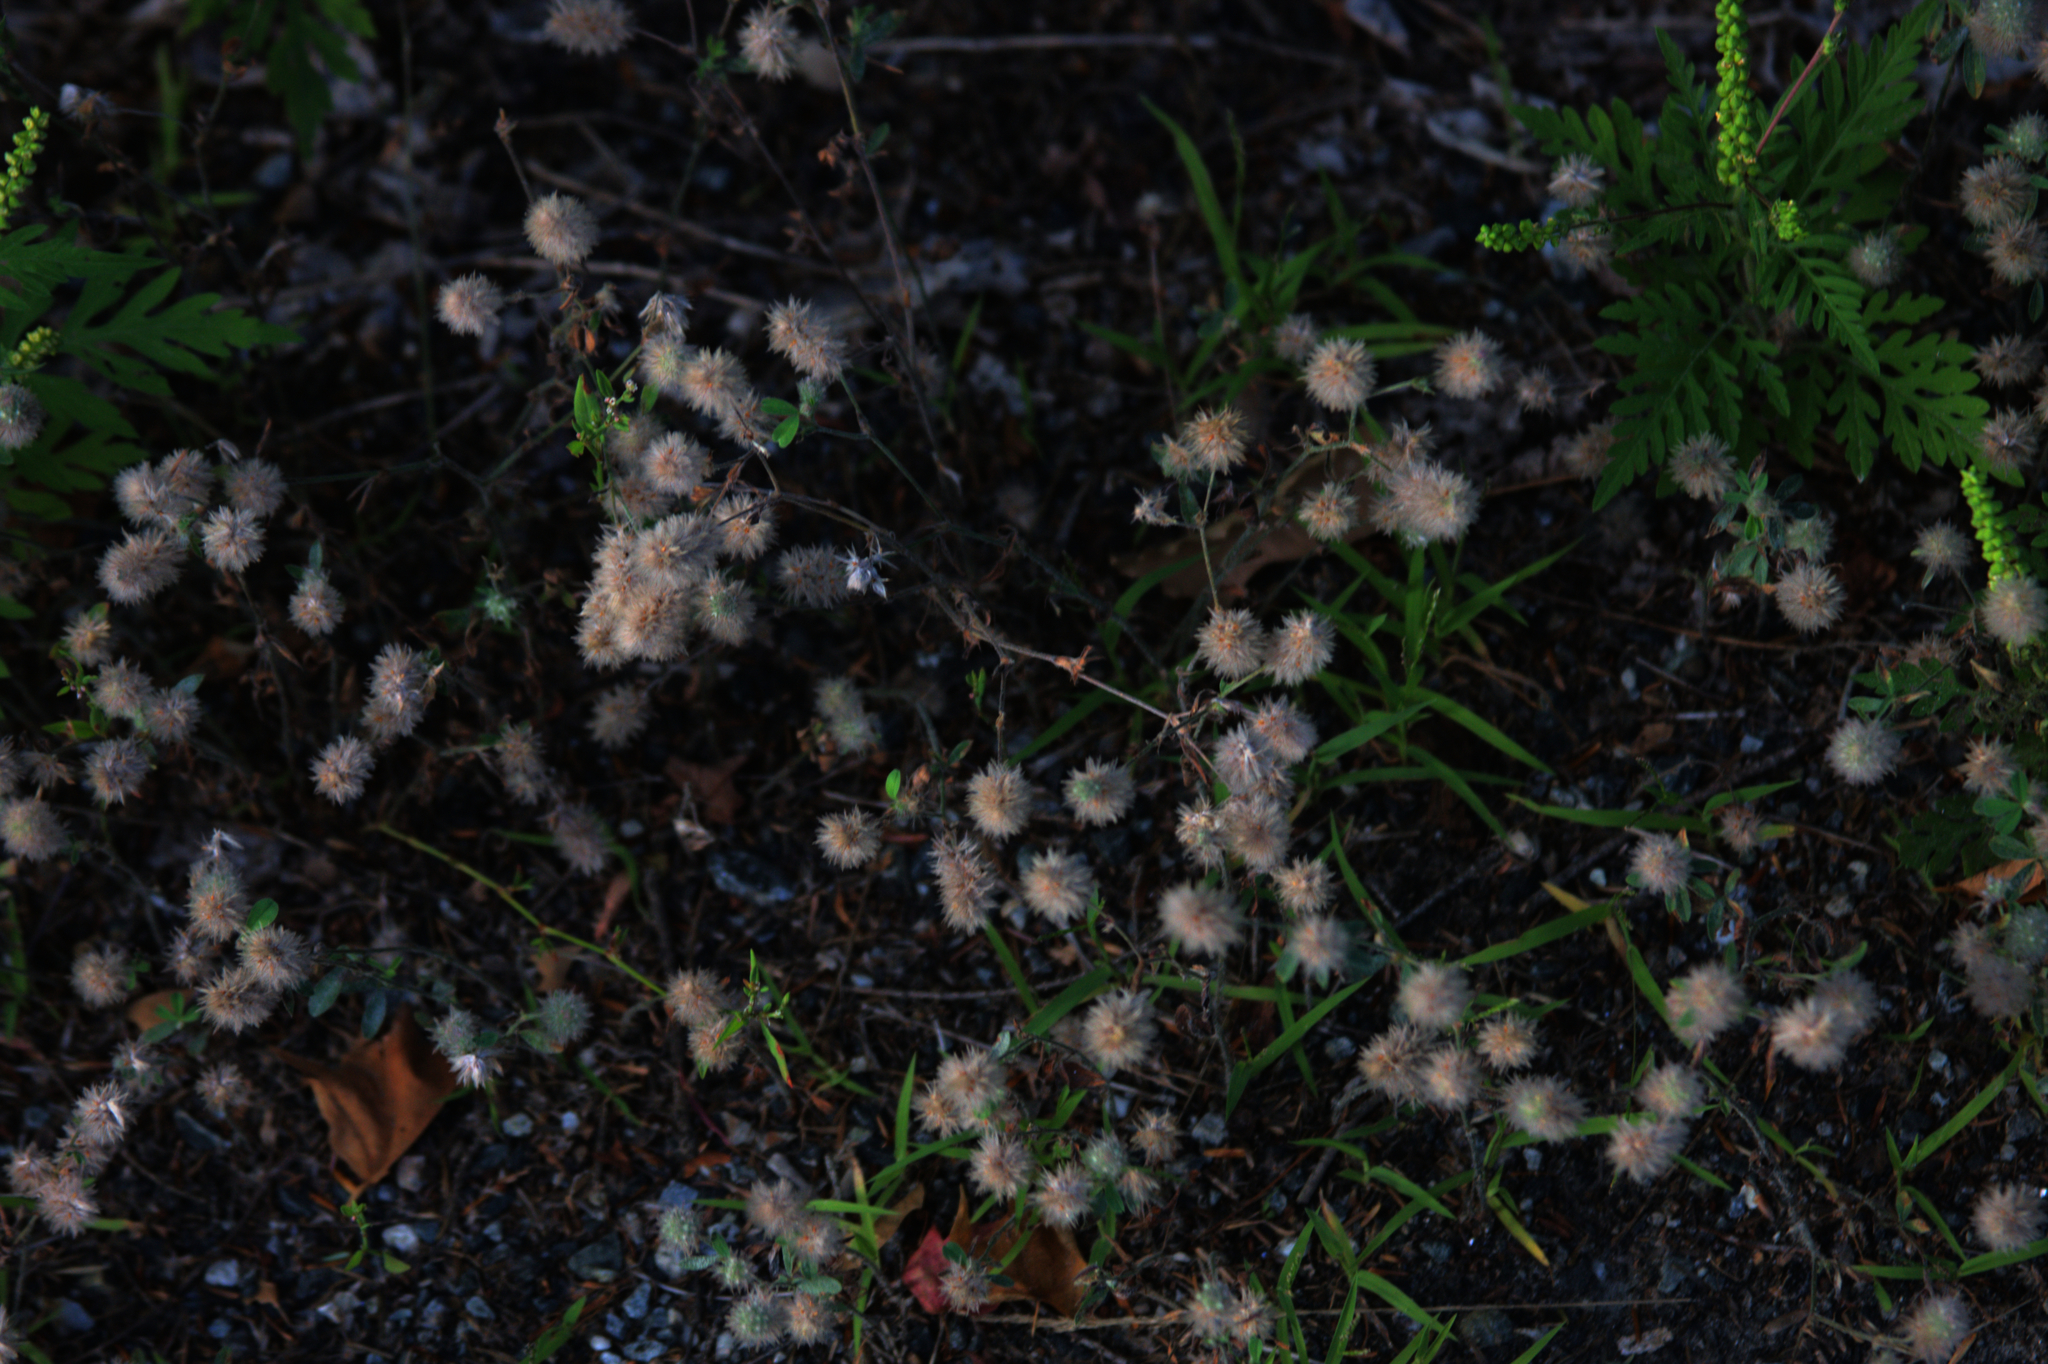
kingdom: Plantae
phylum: Tracheophyta
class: Magnoliopsida
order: Fabales
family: Fabaceae
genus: Trifolium
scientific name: Trifolium arvense
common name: Hare's-foot clover
